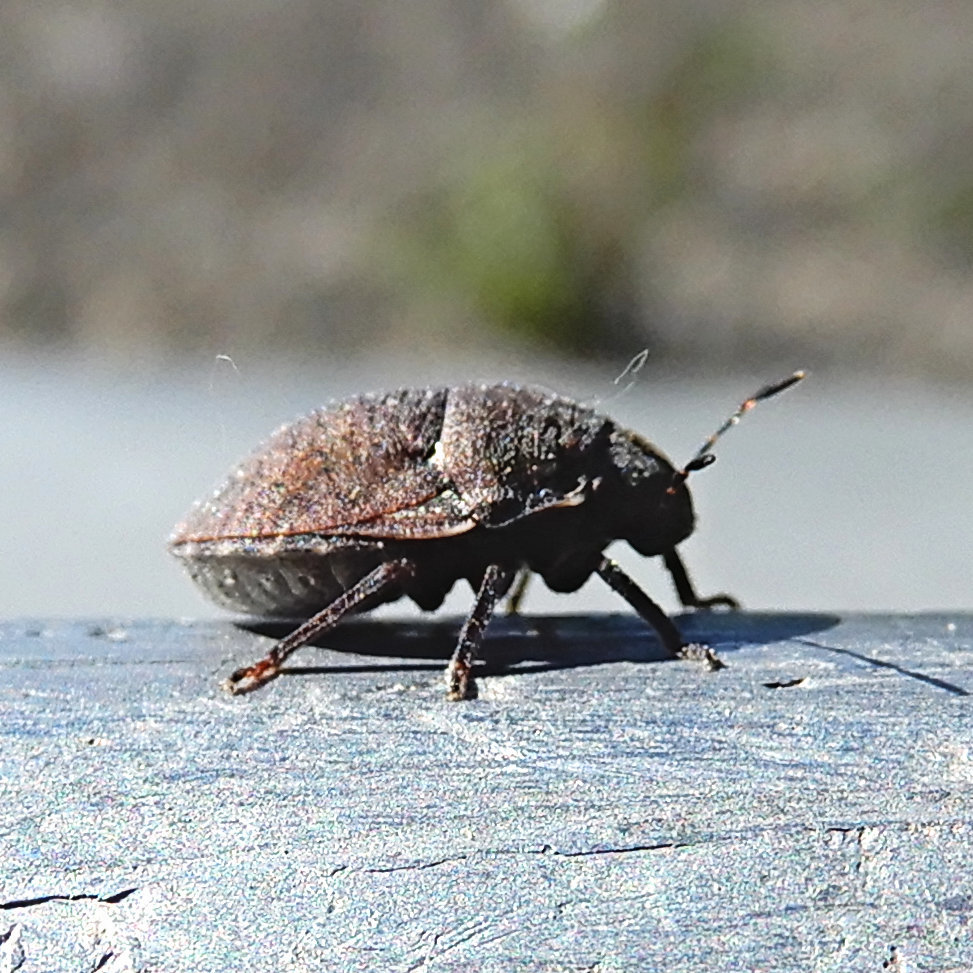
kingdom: Animalia
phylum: Arthropoda
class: Insecta
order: Hemiptera
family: Scutelleridae
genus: Vanduzeeina
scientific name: Vanduzeeina borealis
